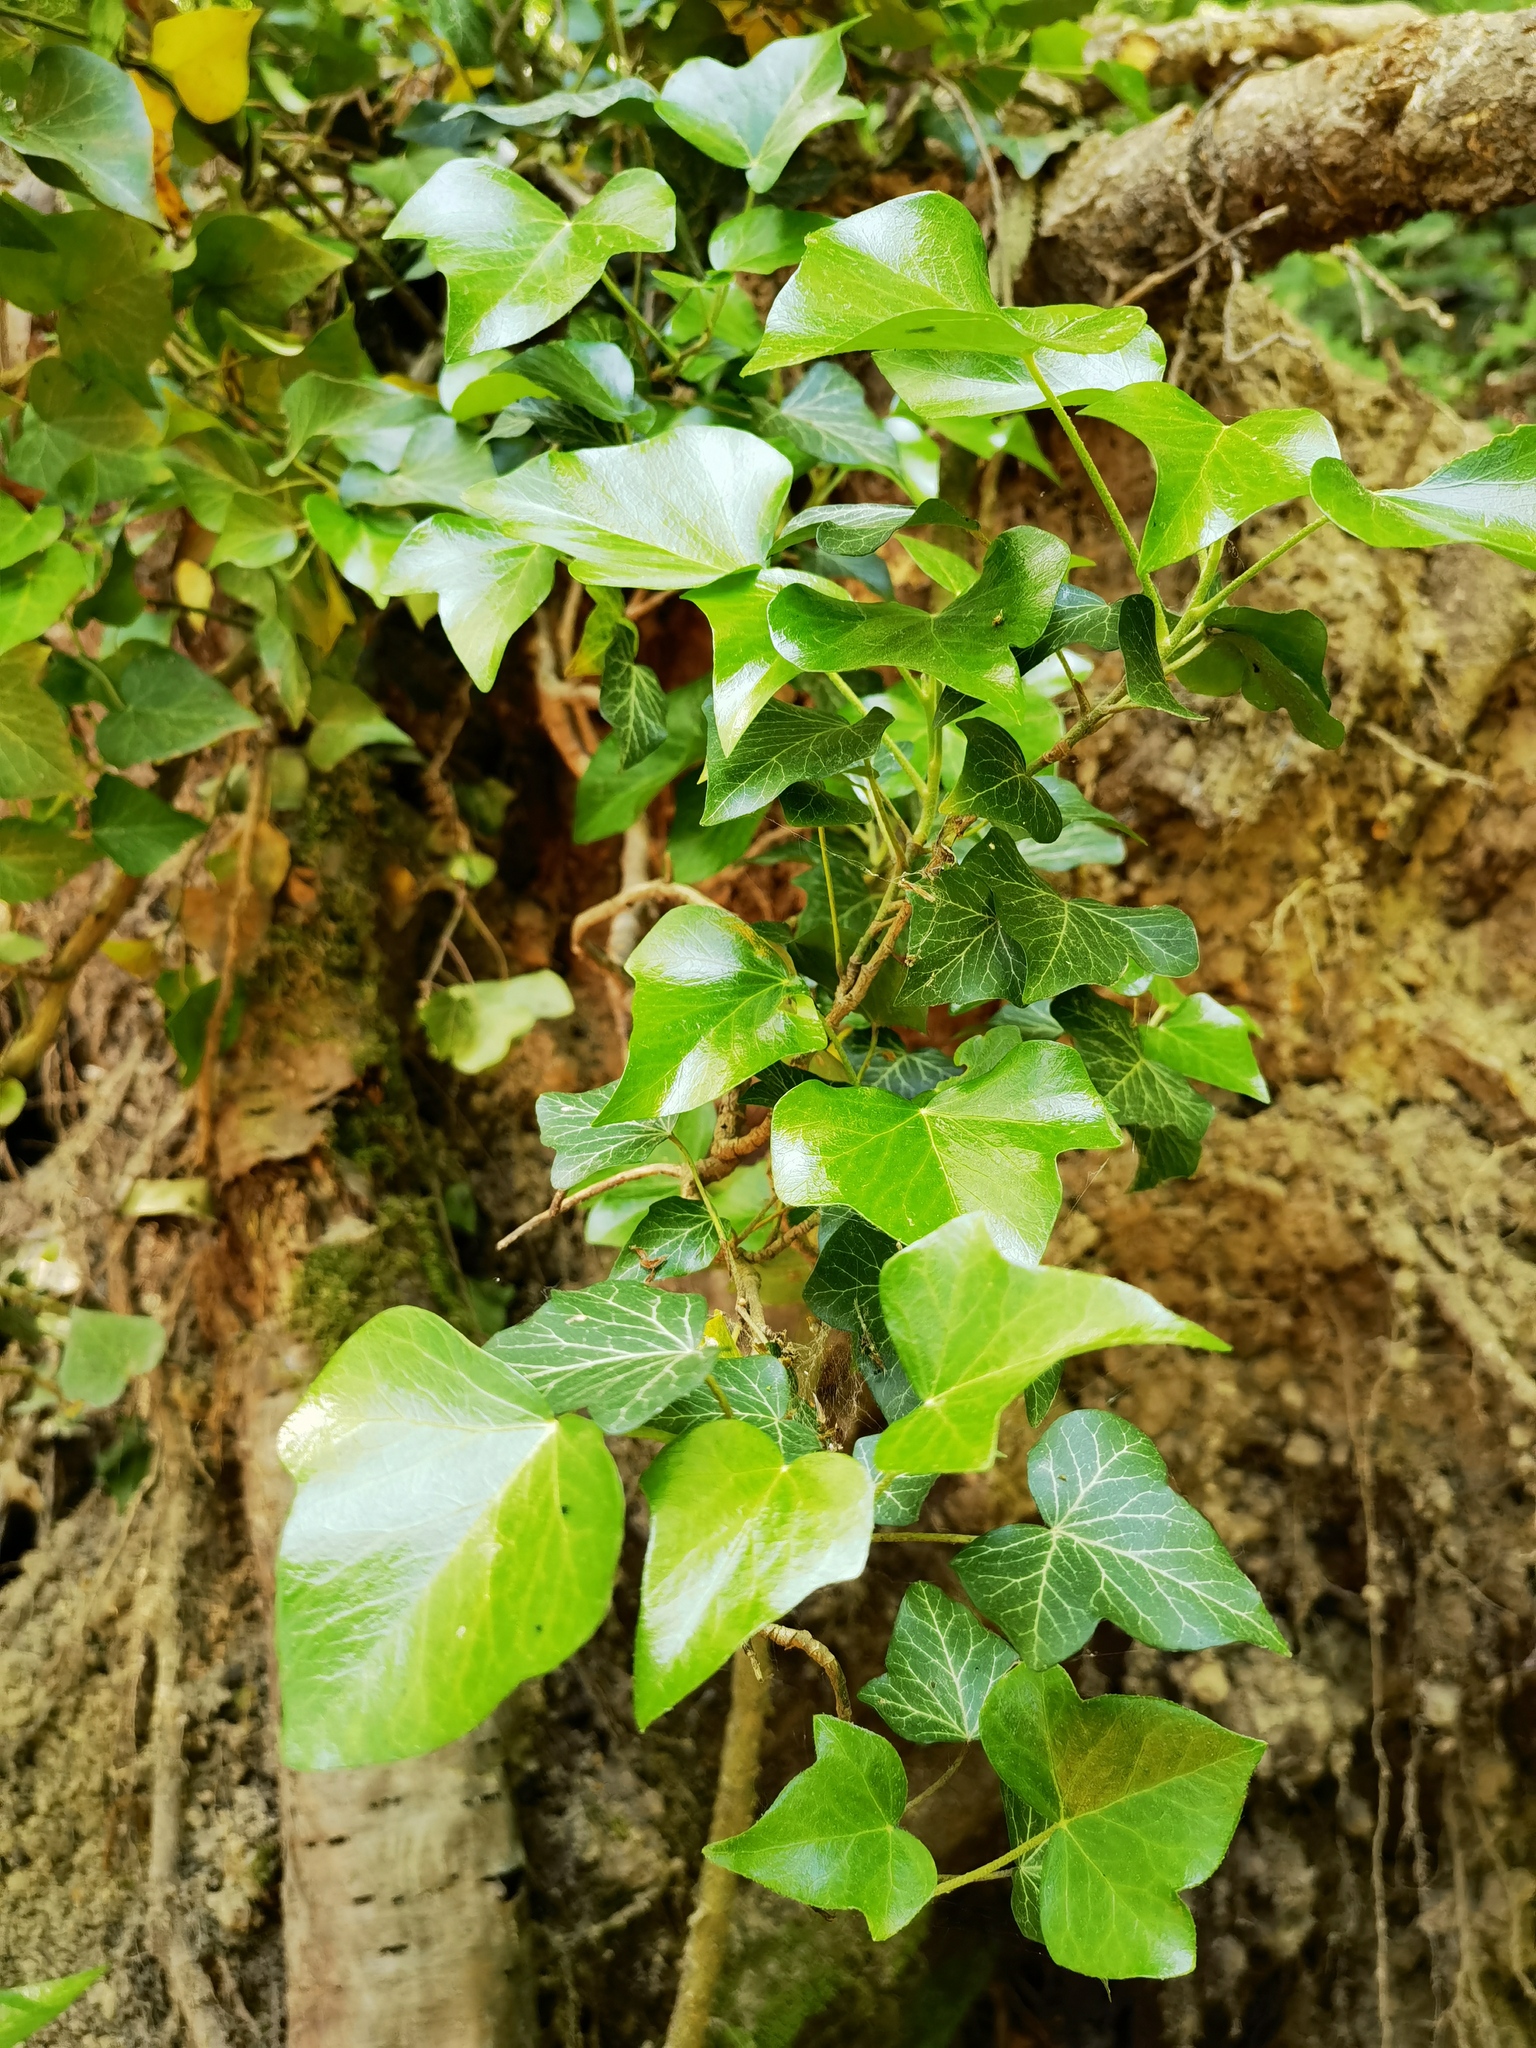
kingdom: Plantae
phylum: Tracheophyta
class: Magnoliopsida
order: Apiales
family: Araliaceae
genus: Hedera
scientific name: Hedera helix
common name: Ivy
